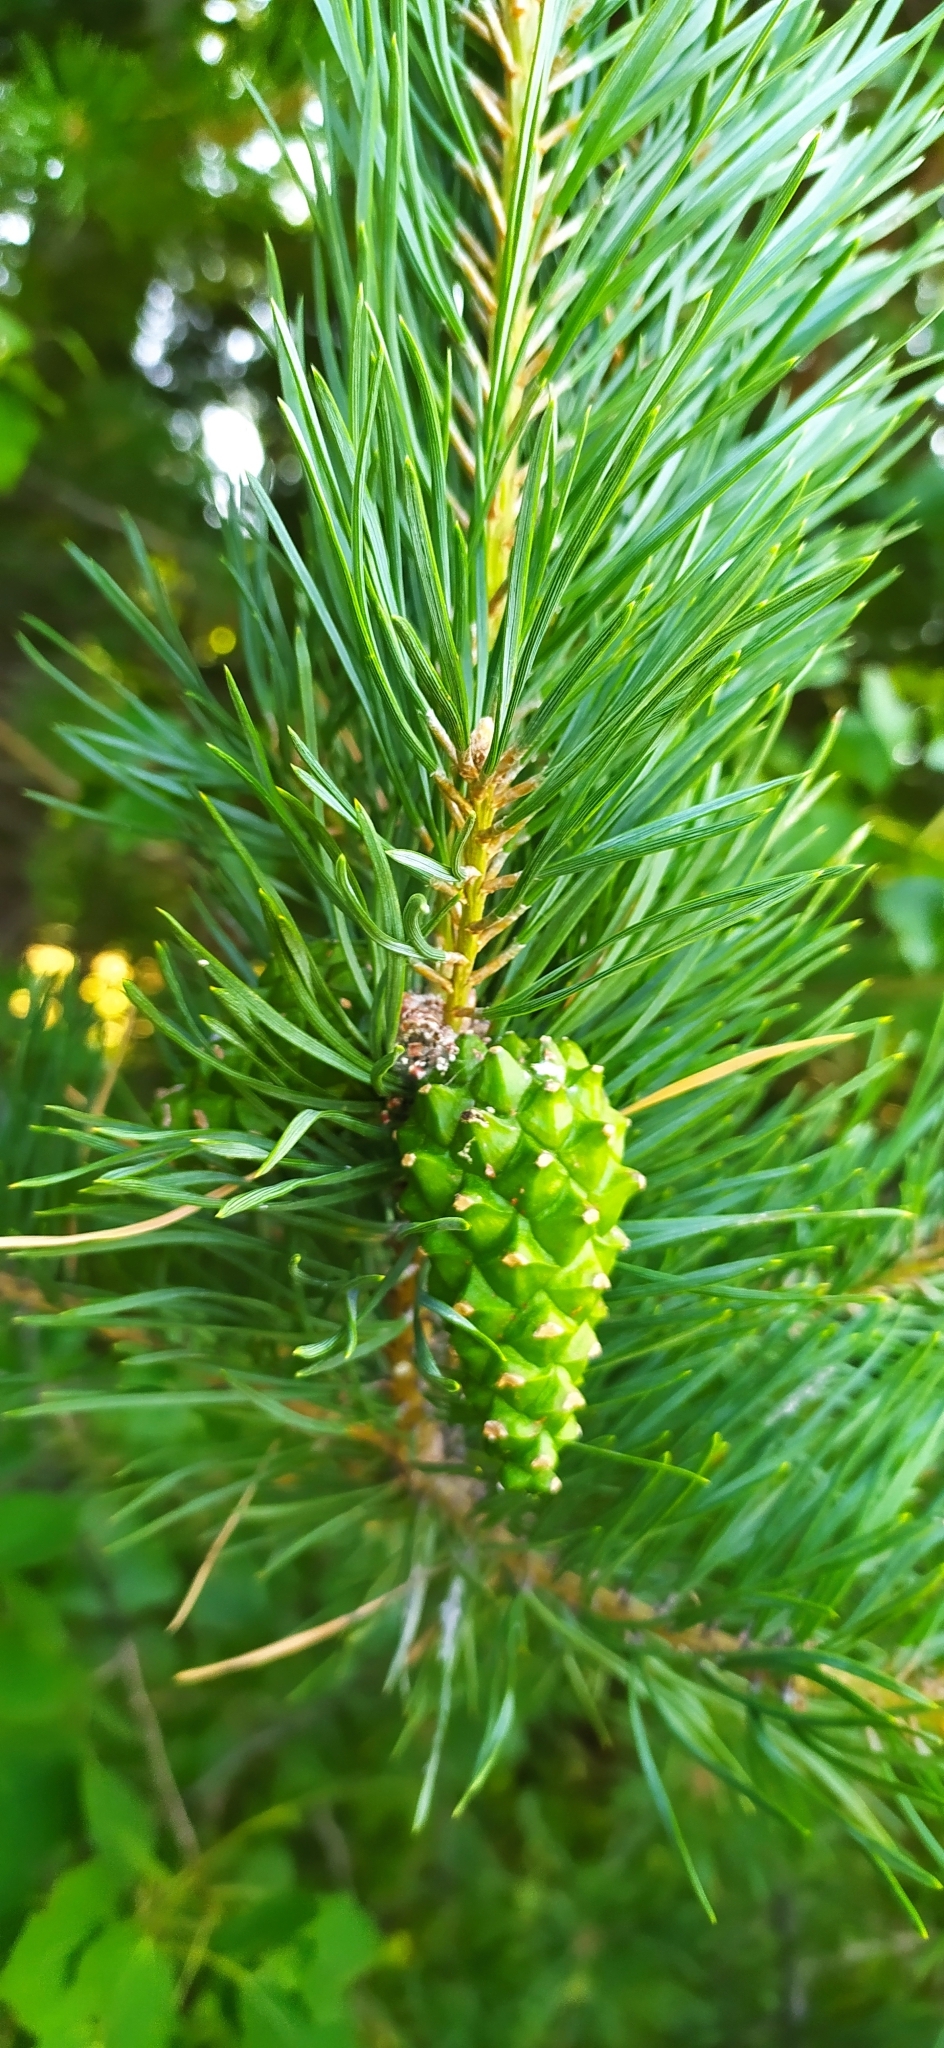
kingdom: Plantae
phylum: Tracheophyta
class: Pinopsida
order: Pinales
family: Pinaceae
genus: Pinus
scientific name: Pinus sylvestris
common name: Scots pine
